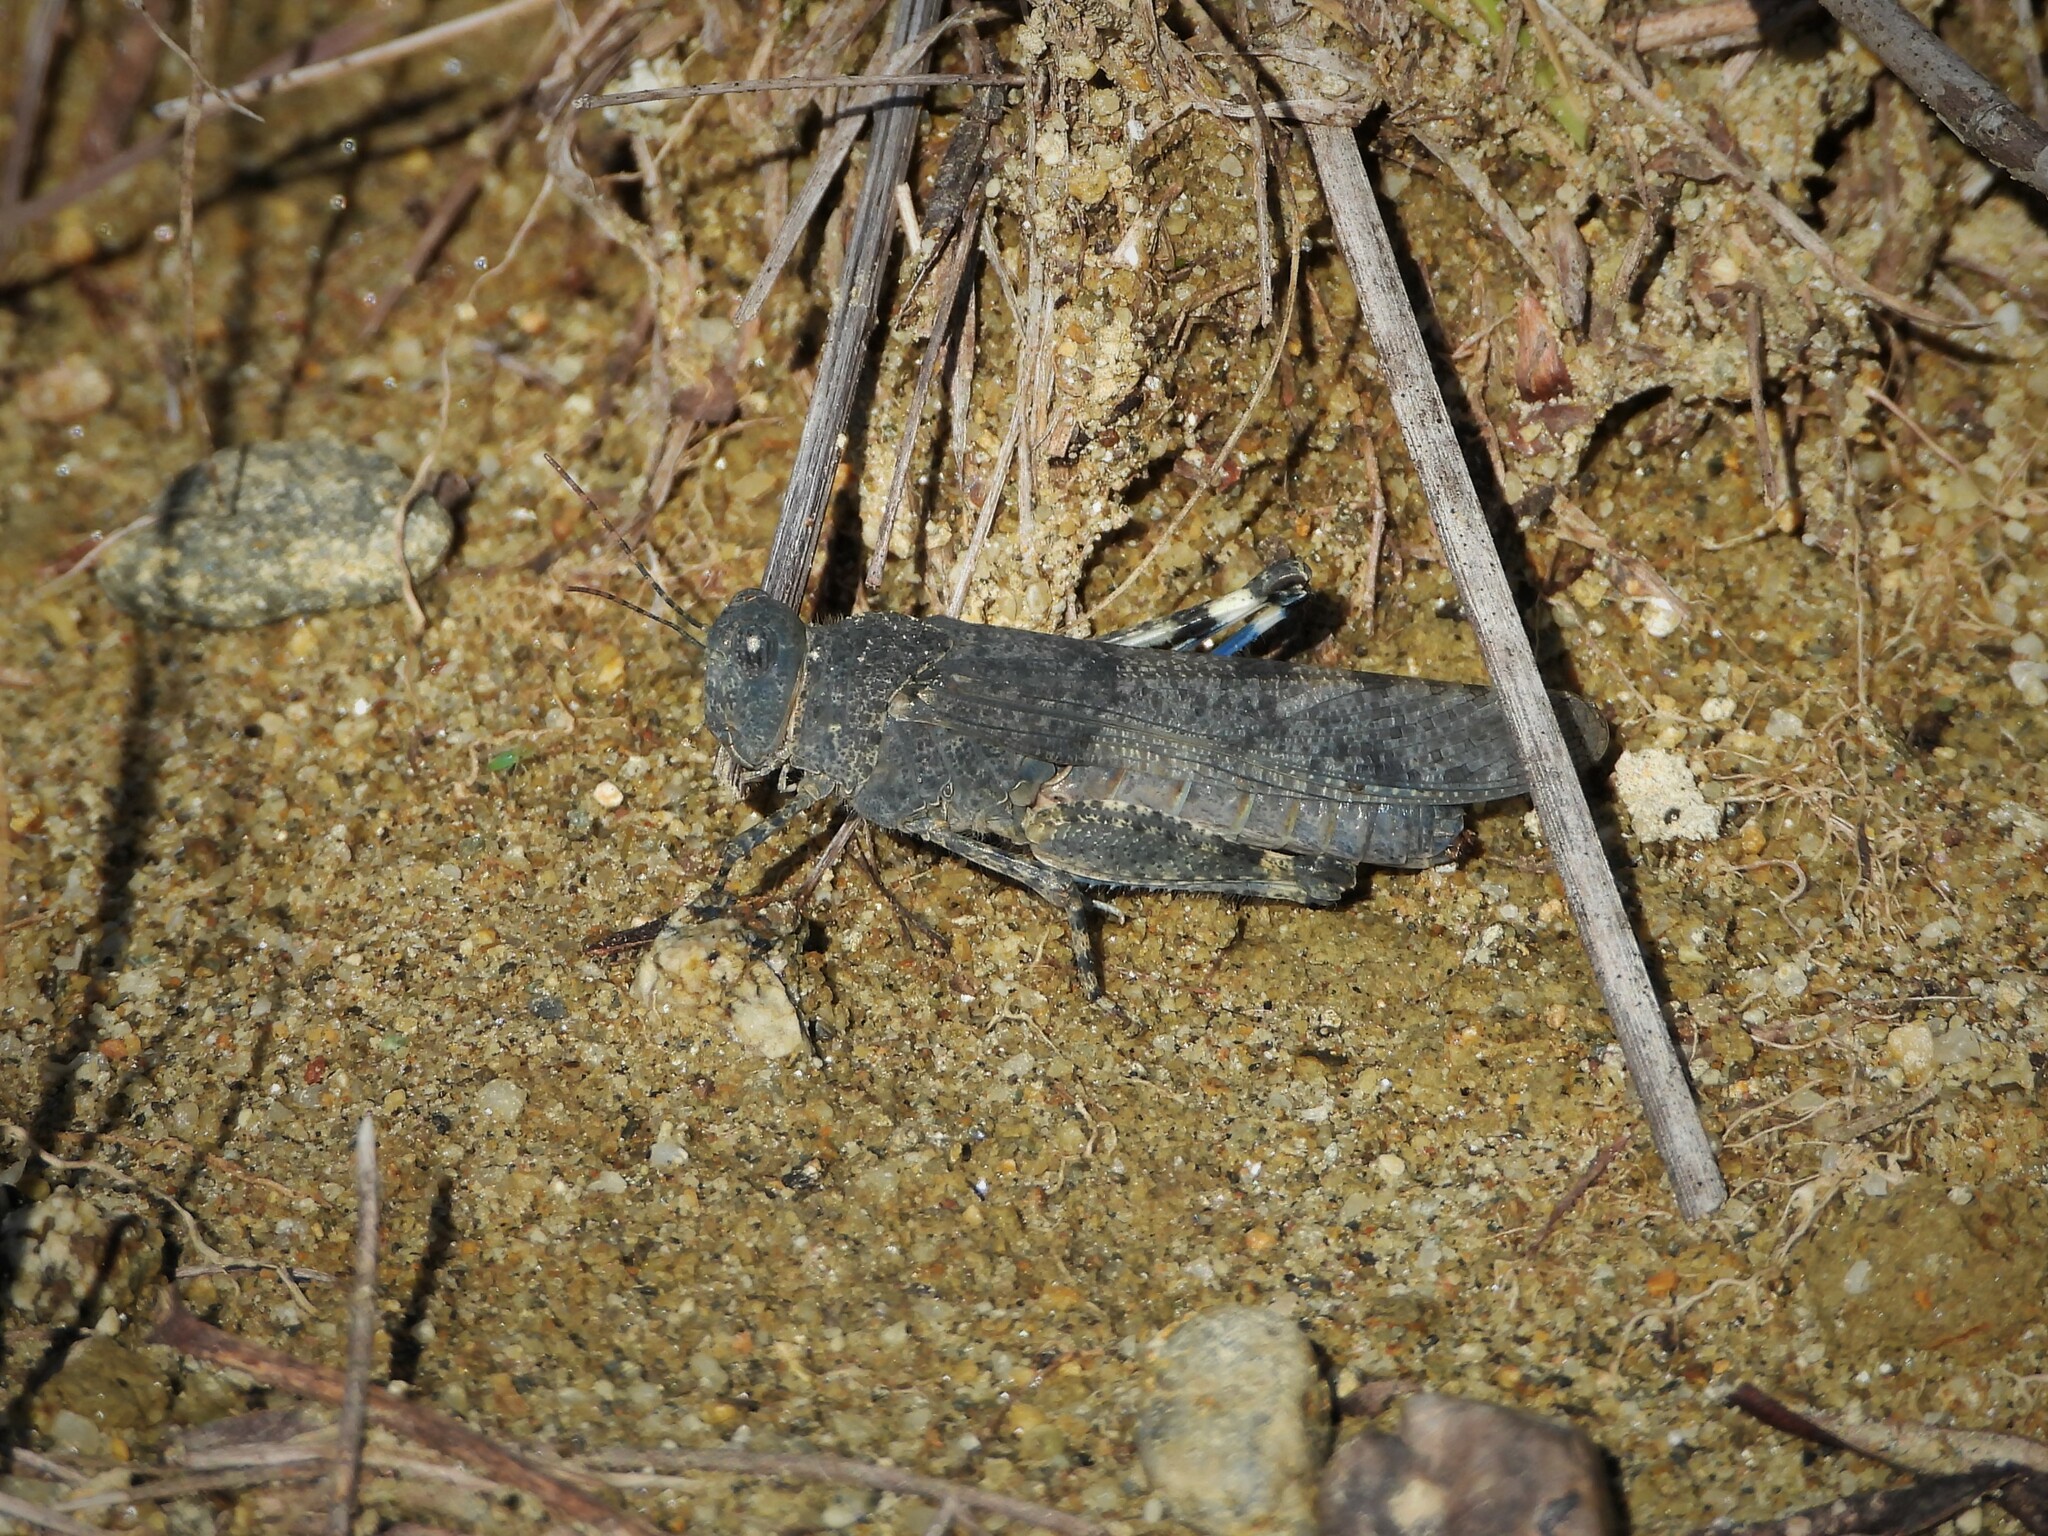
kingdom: Animalia
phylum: Arthropoda
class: Insecta
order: Orthoptera
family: Acrididae
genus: Sphingonotus
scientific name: Sphingonotus caerulans
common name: Blue-winged locust
